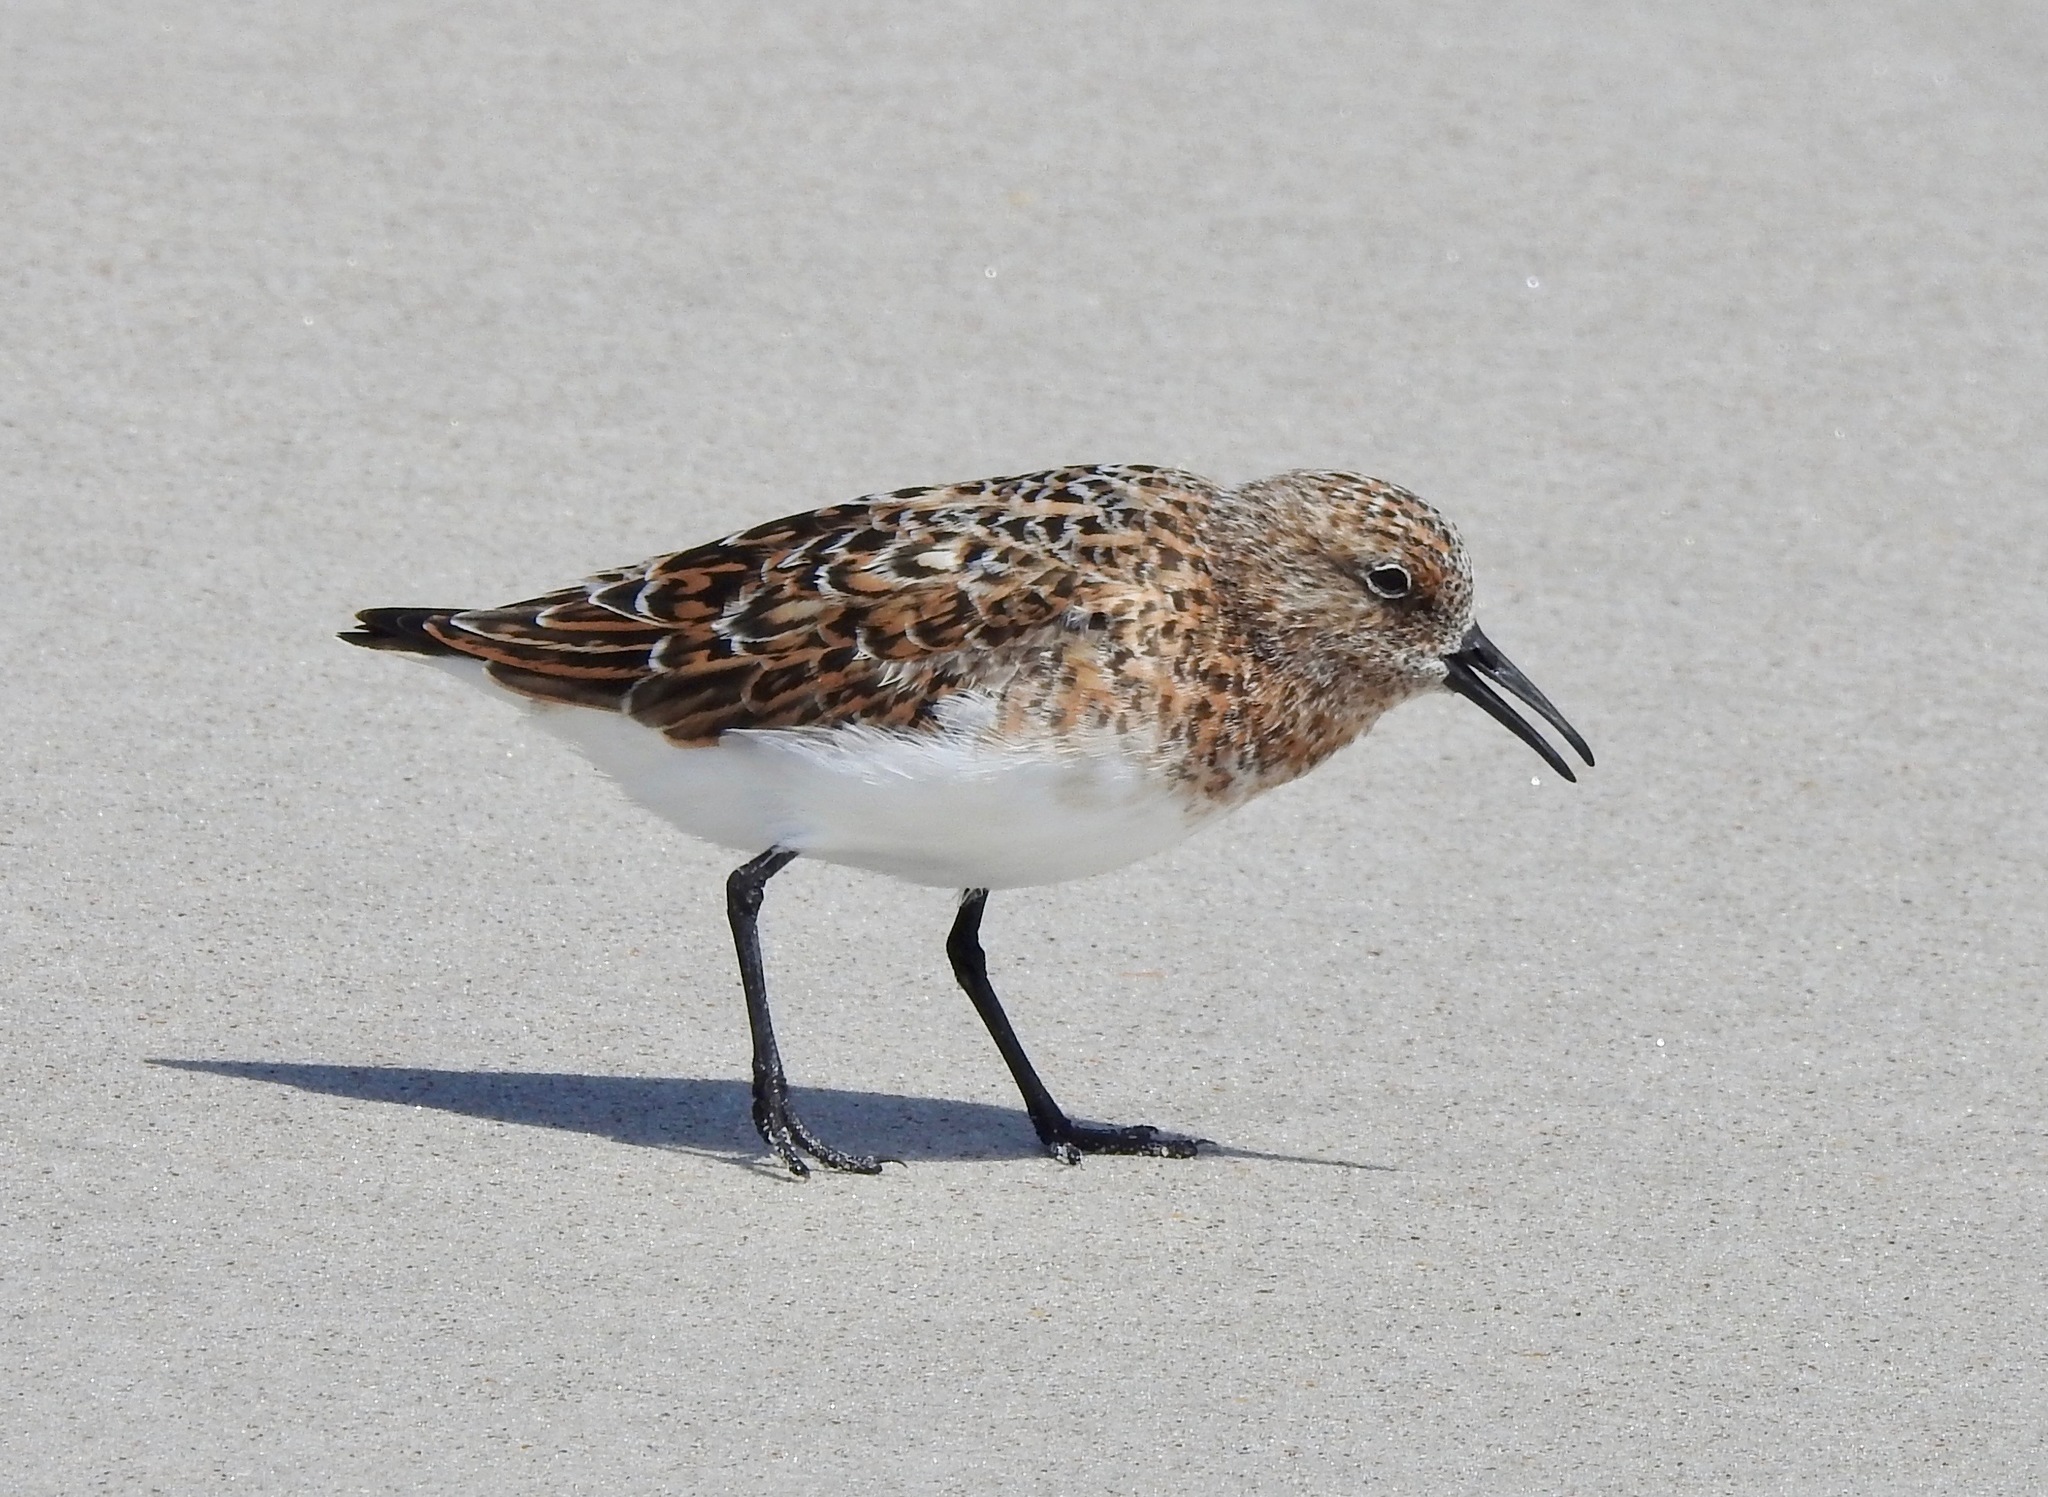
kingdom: Animalia
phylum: Chordata
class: Aves
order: Charadriiformes
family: Scolopacidae
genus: Calidris
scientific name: Calidris alba
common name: Sanderling
